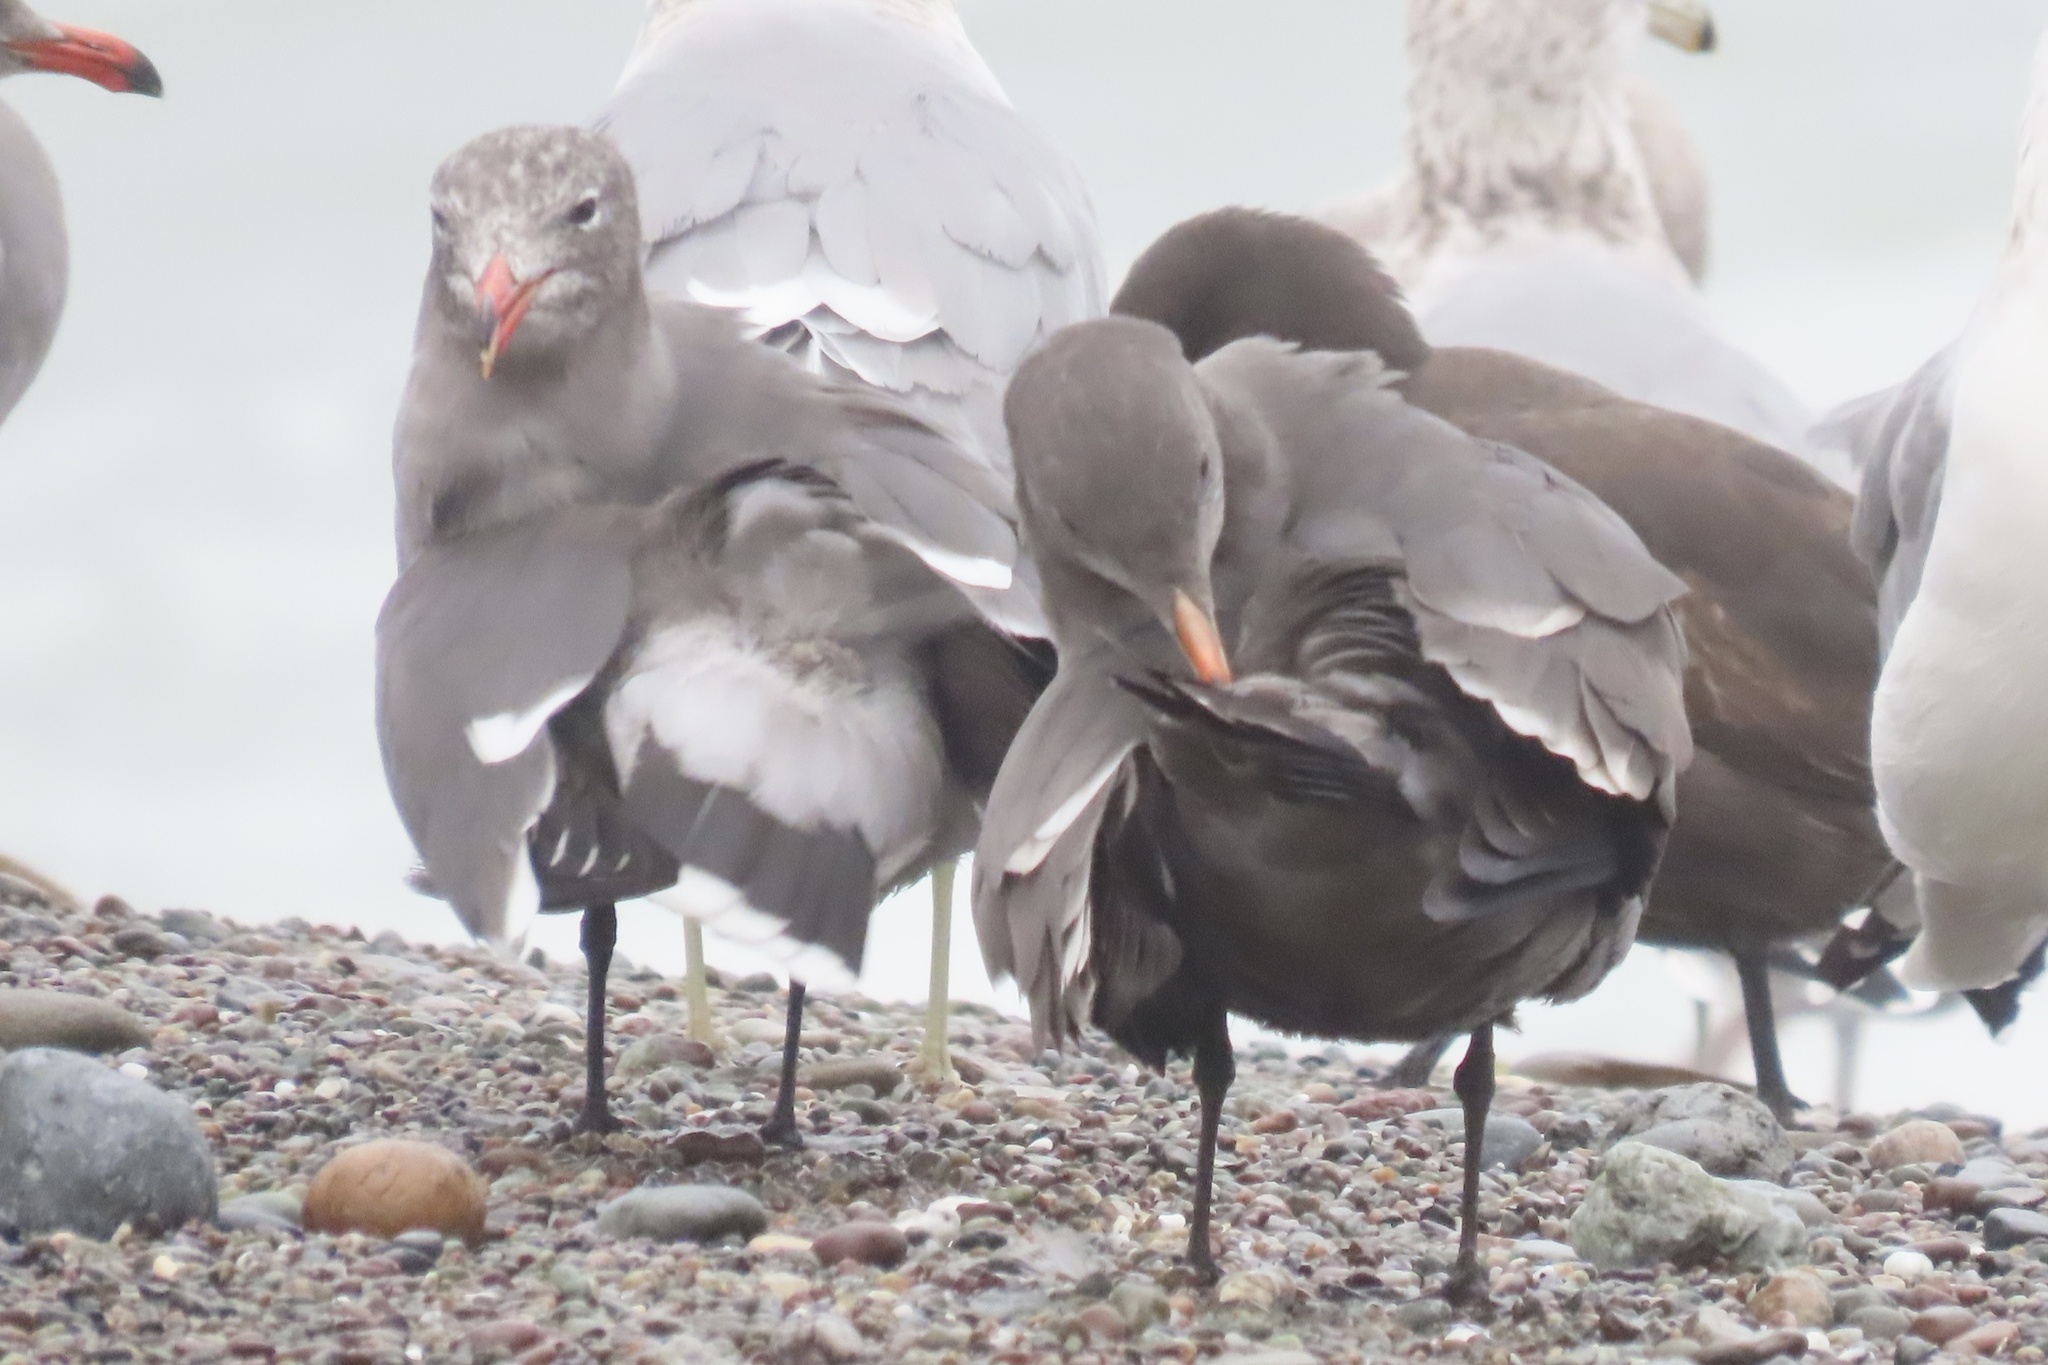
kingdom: Animalia
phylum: Chordata
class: Aves
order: Charadriiformes
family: Laridae
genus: Larus
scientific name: Larus heermanni
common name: Heermann's gull
